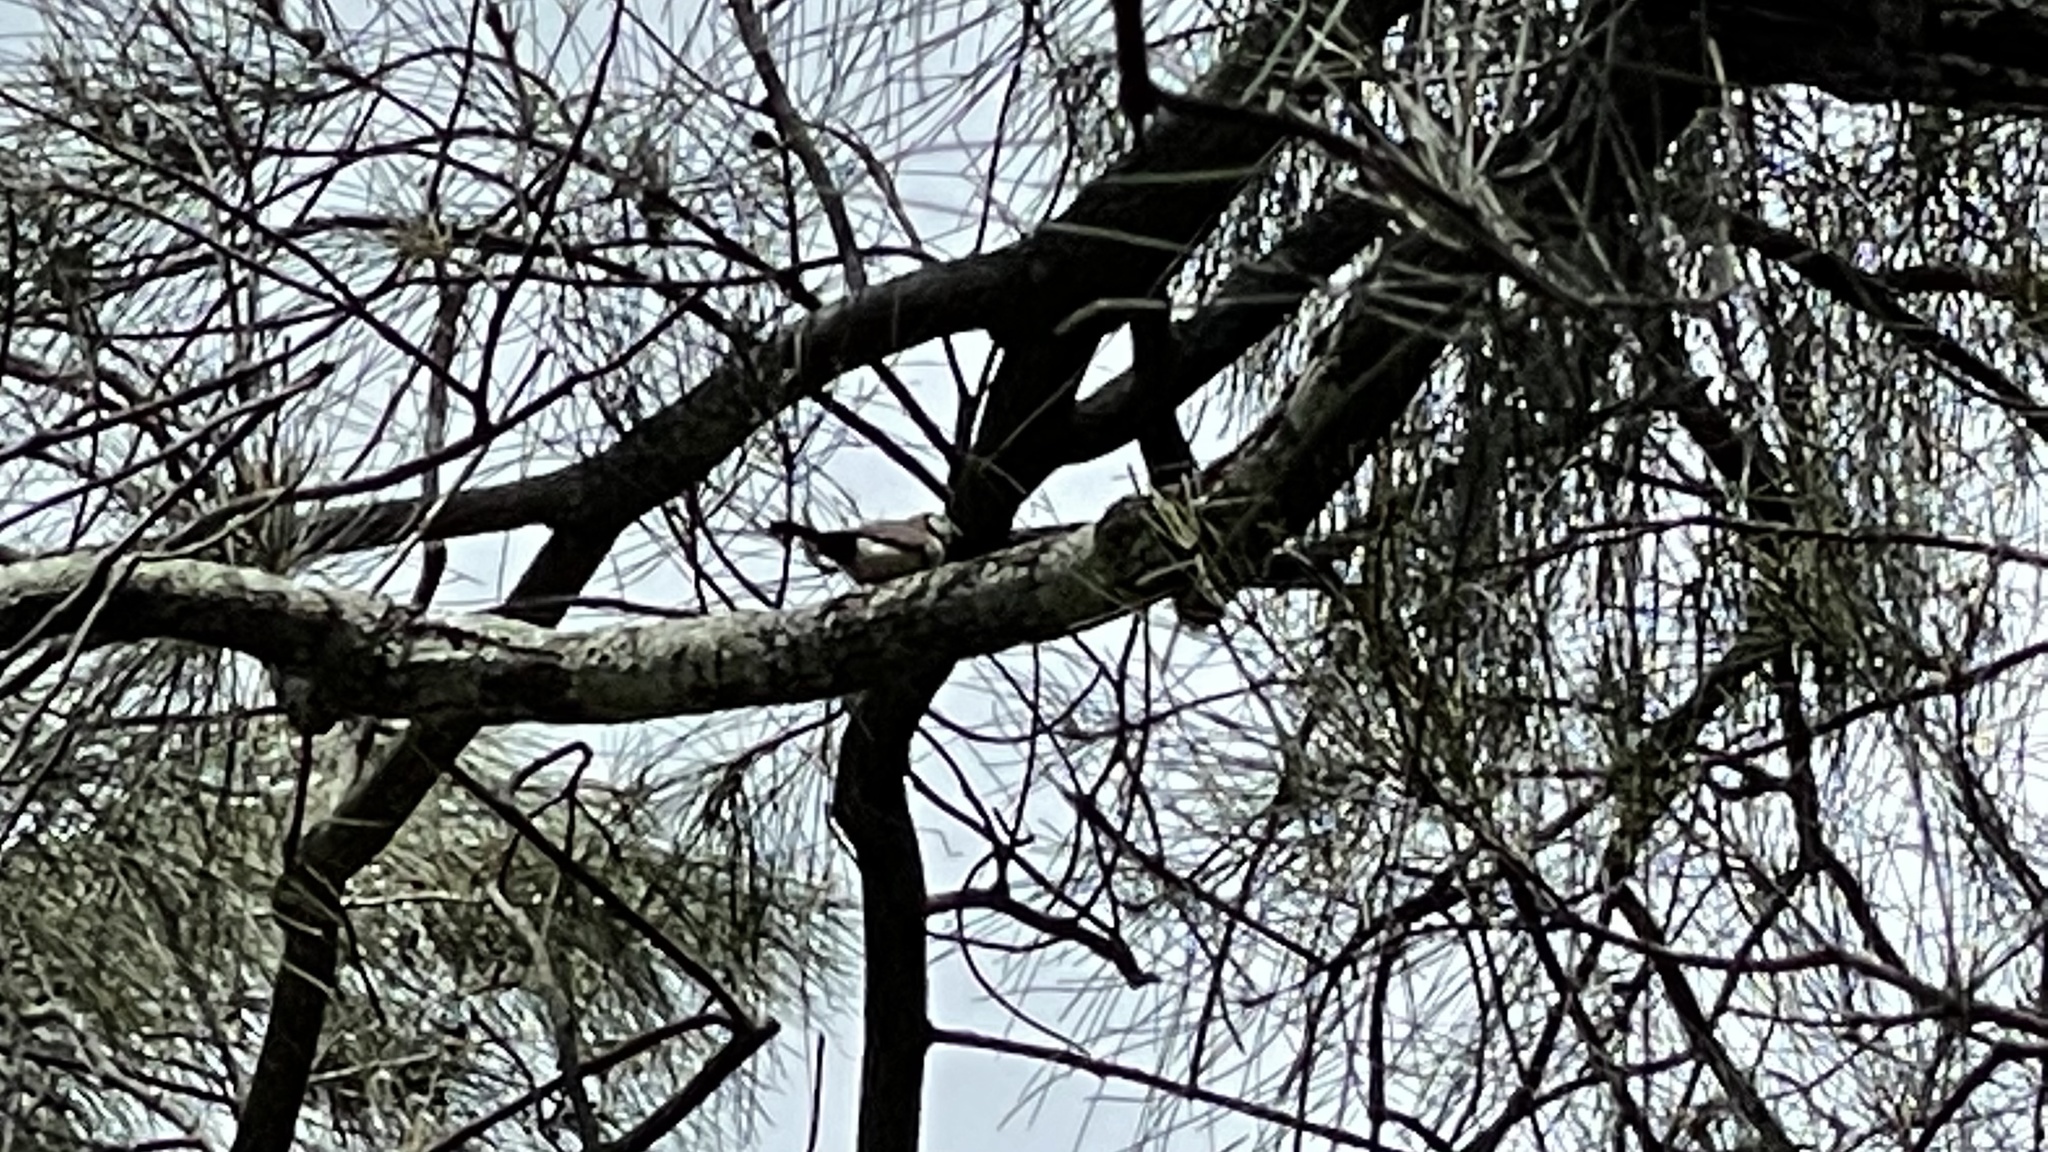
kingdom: Animalia
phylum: Chordata
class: Aves
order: Passeriformes
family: Estrildidae
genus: Taeniopygia
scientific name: Taeniopygia bichenovii
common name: Double-barred finch
